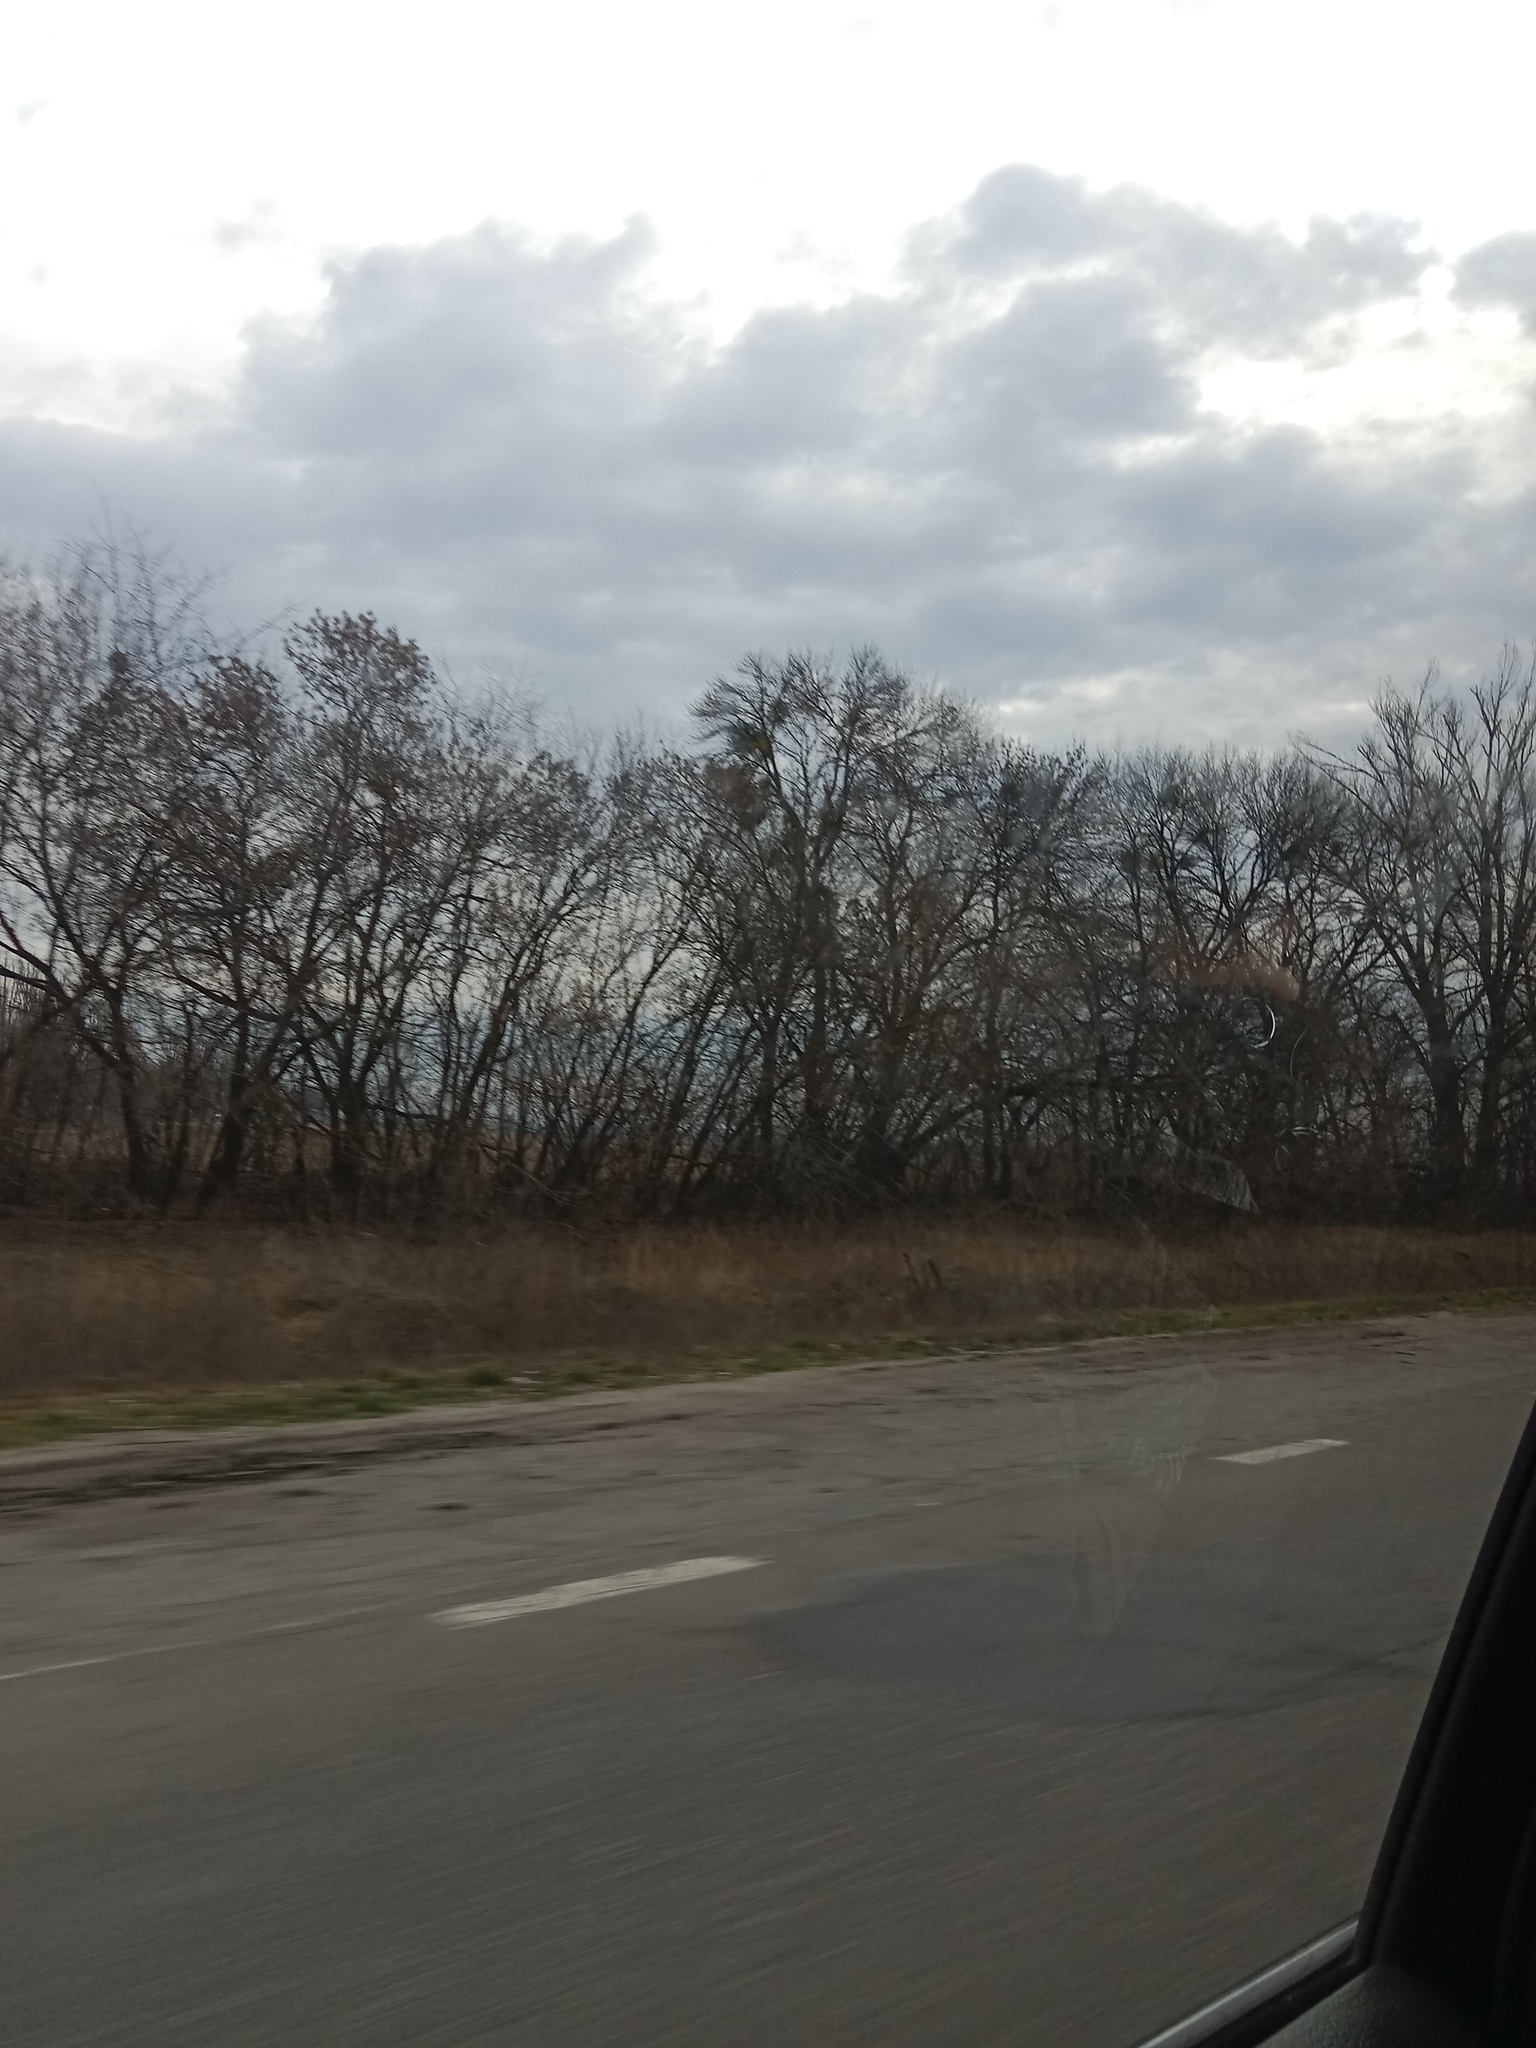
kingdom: Plantae
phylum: Tracheophyta
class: Magnoliopsida
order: Santalales
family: Viscaceae
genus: Viscum
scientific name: Viscum album
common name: Mistletoe
